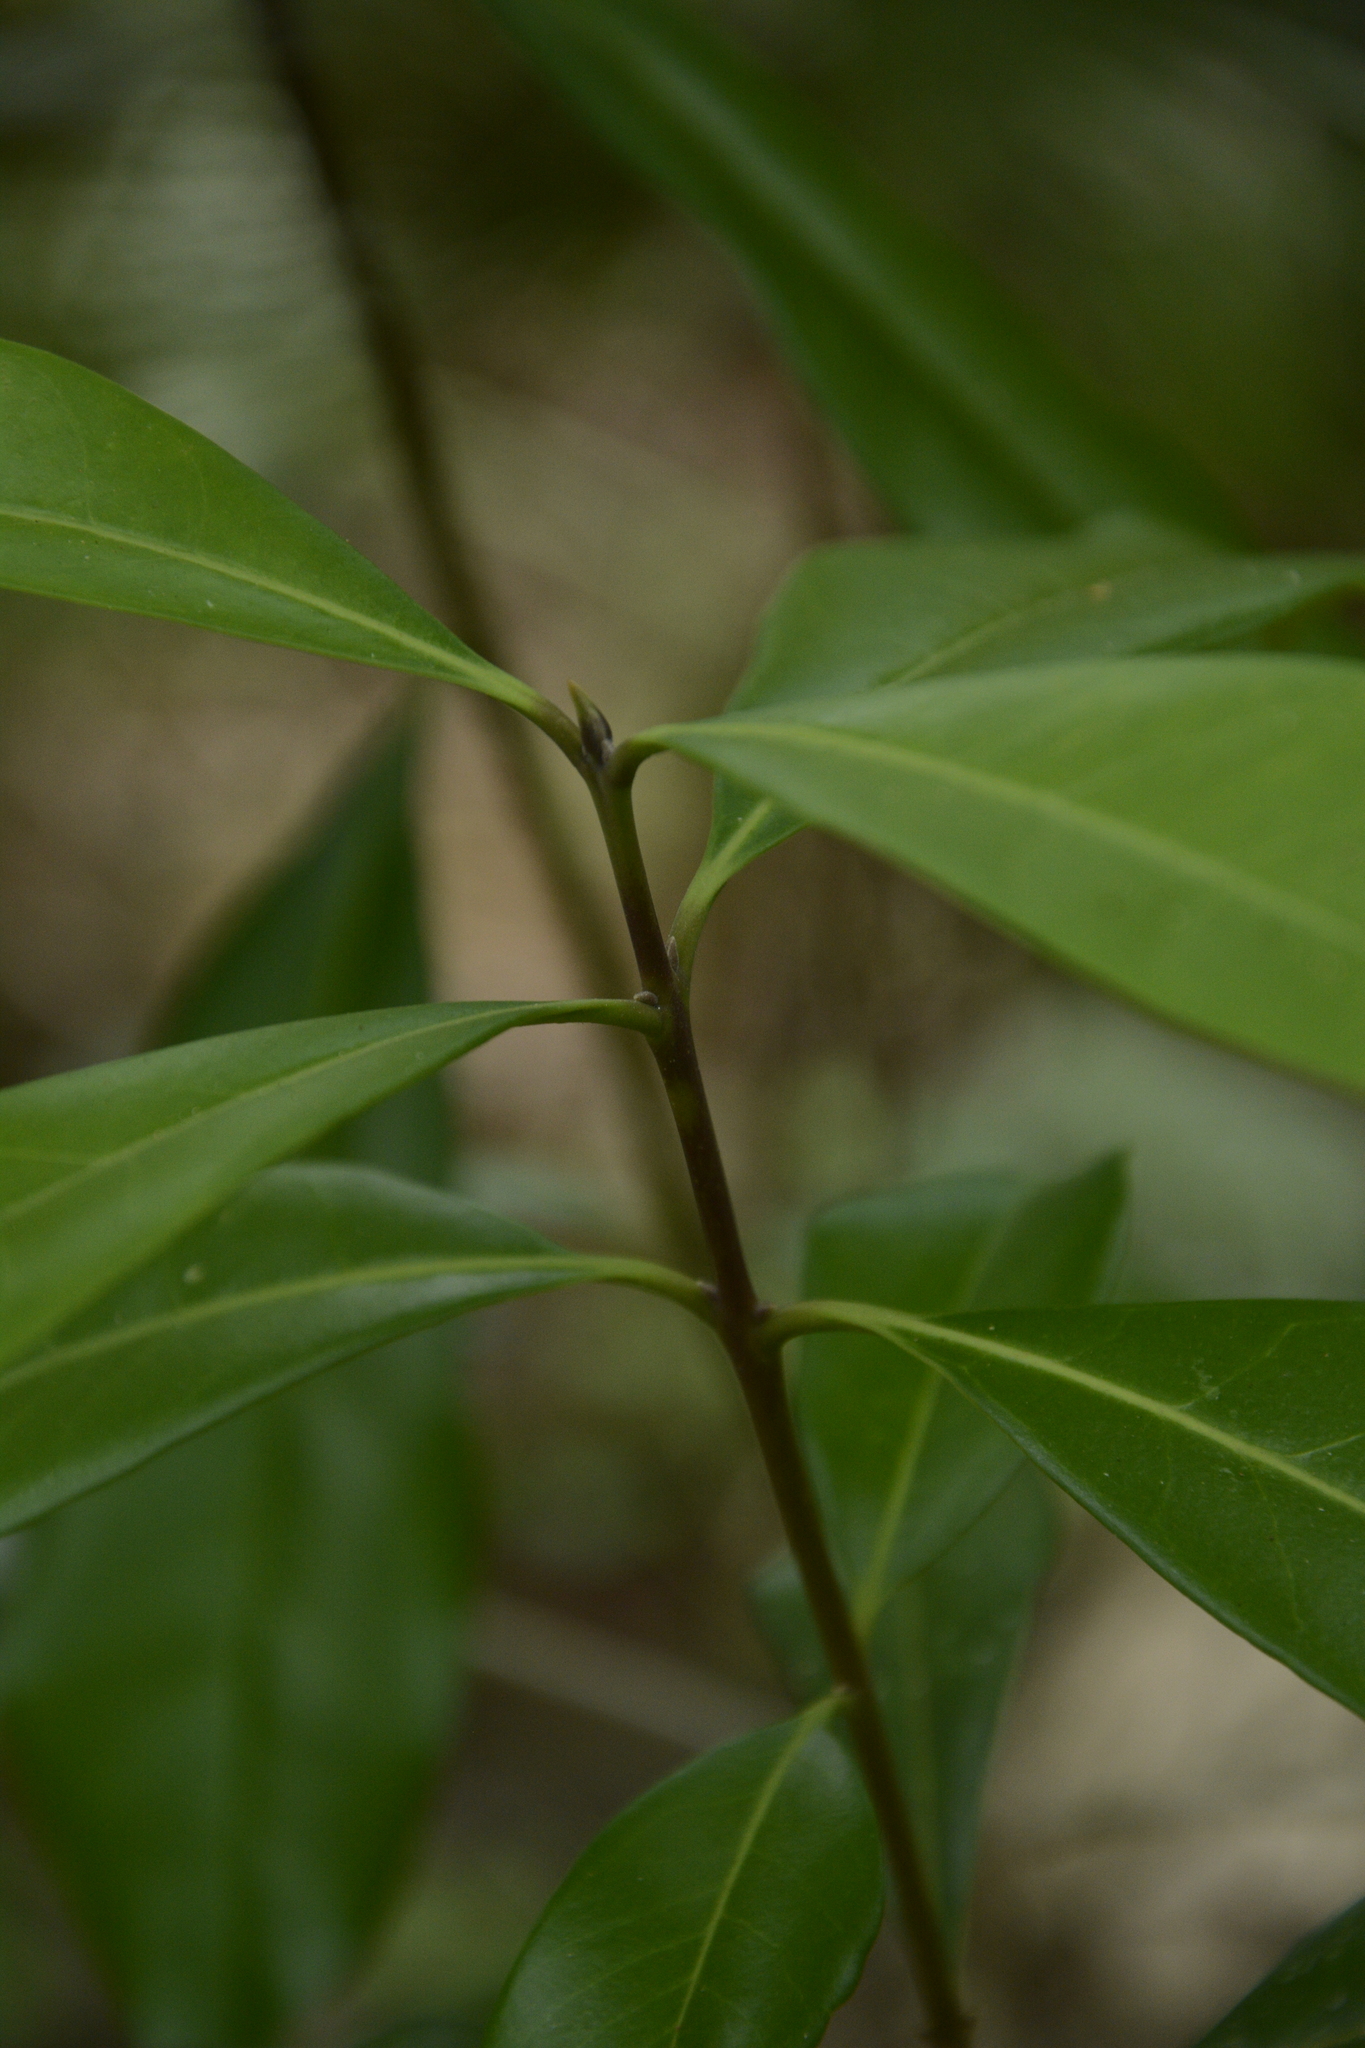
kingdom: Plantae
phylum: Tracheophyta
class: Magnoliopsida
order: Lamiales
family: Oleaceae
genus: Cartrema
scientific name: Cartrema americana
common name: Devilwood
